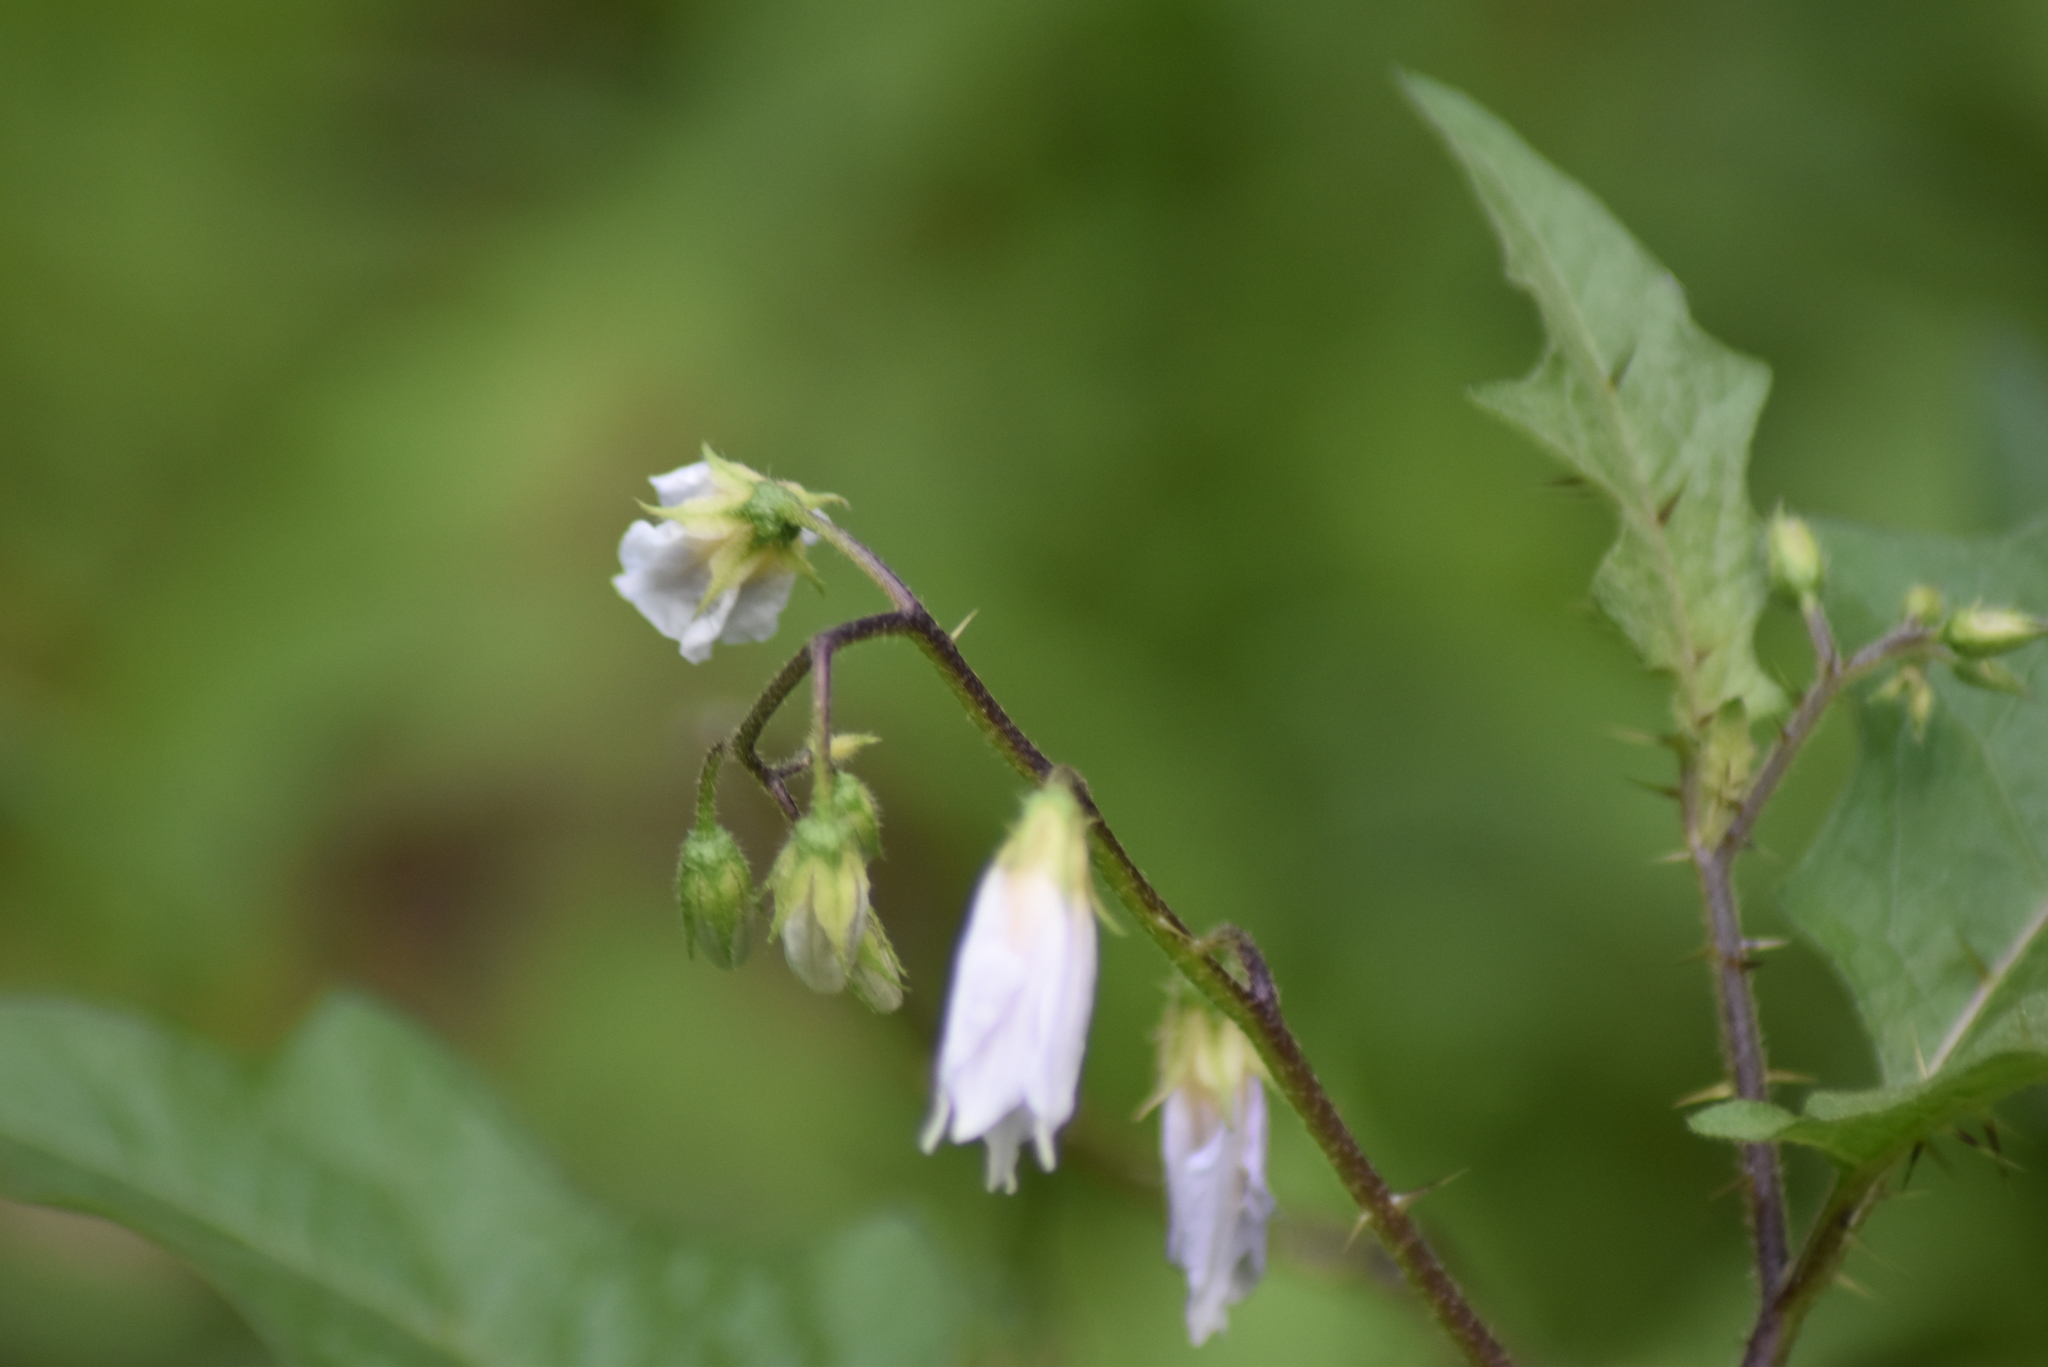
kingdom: Plantae
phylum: Tracheophyta
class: Magnoliopsida
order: Solanales
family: Solanaceae
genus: Solanum
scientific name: Solanum carolinense
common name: Horse-nettle
